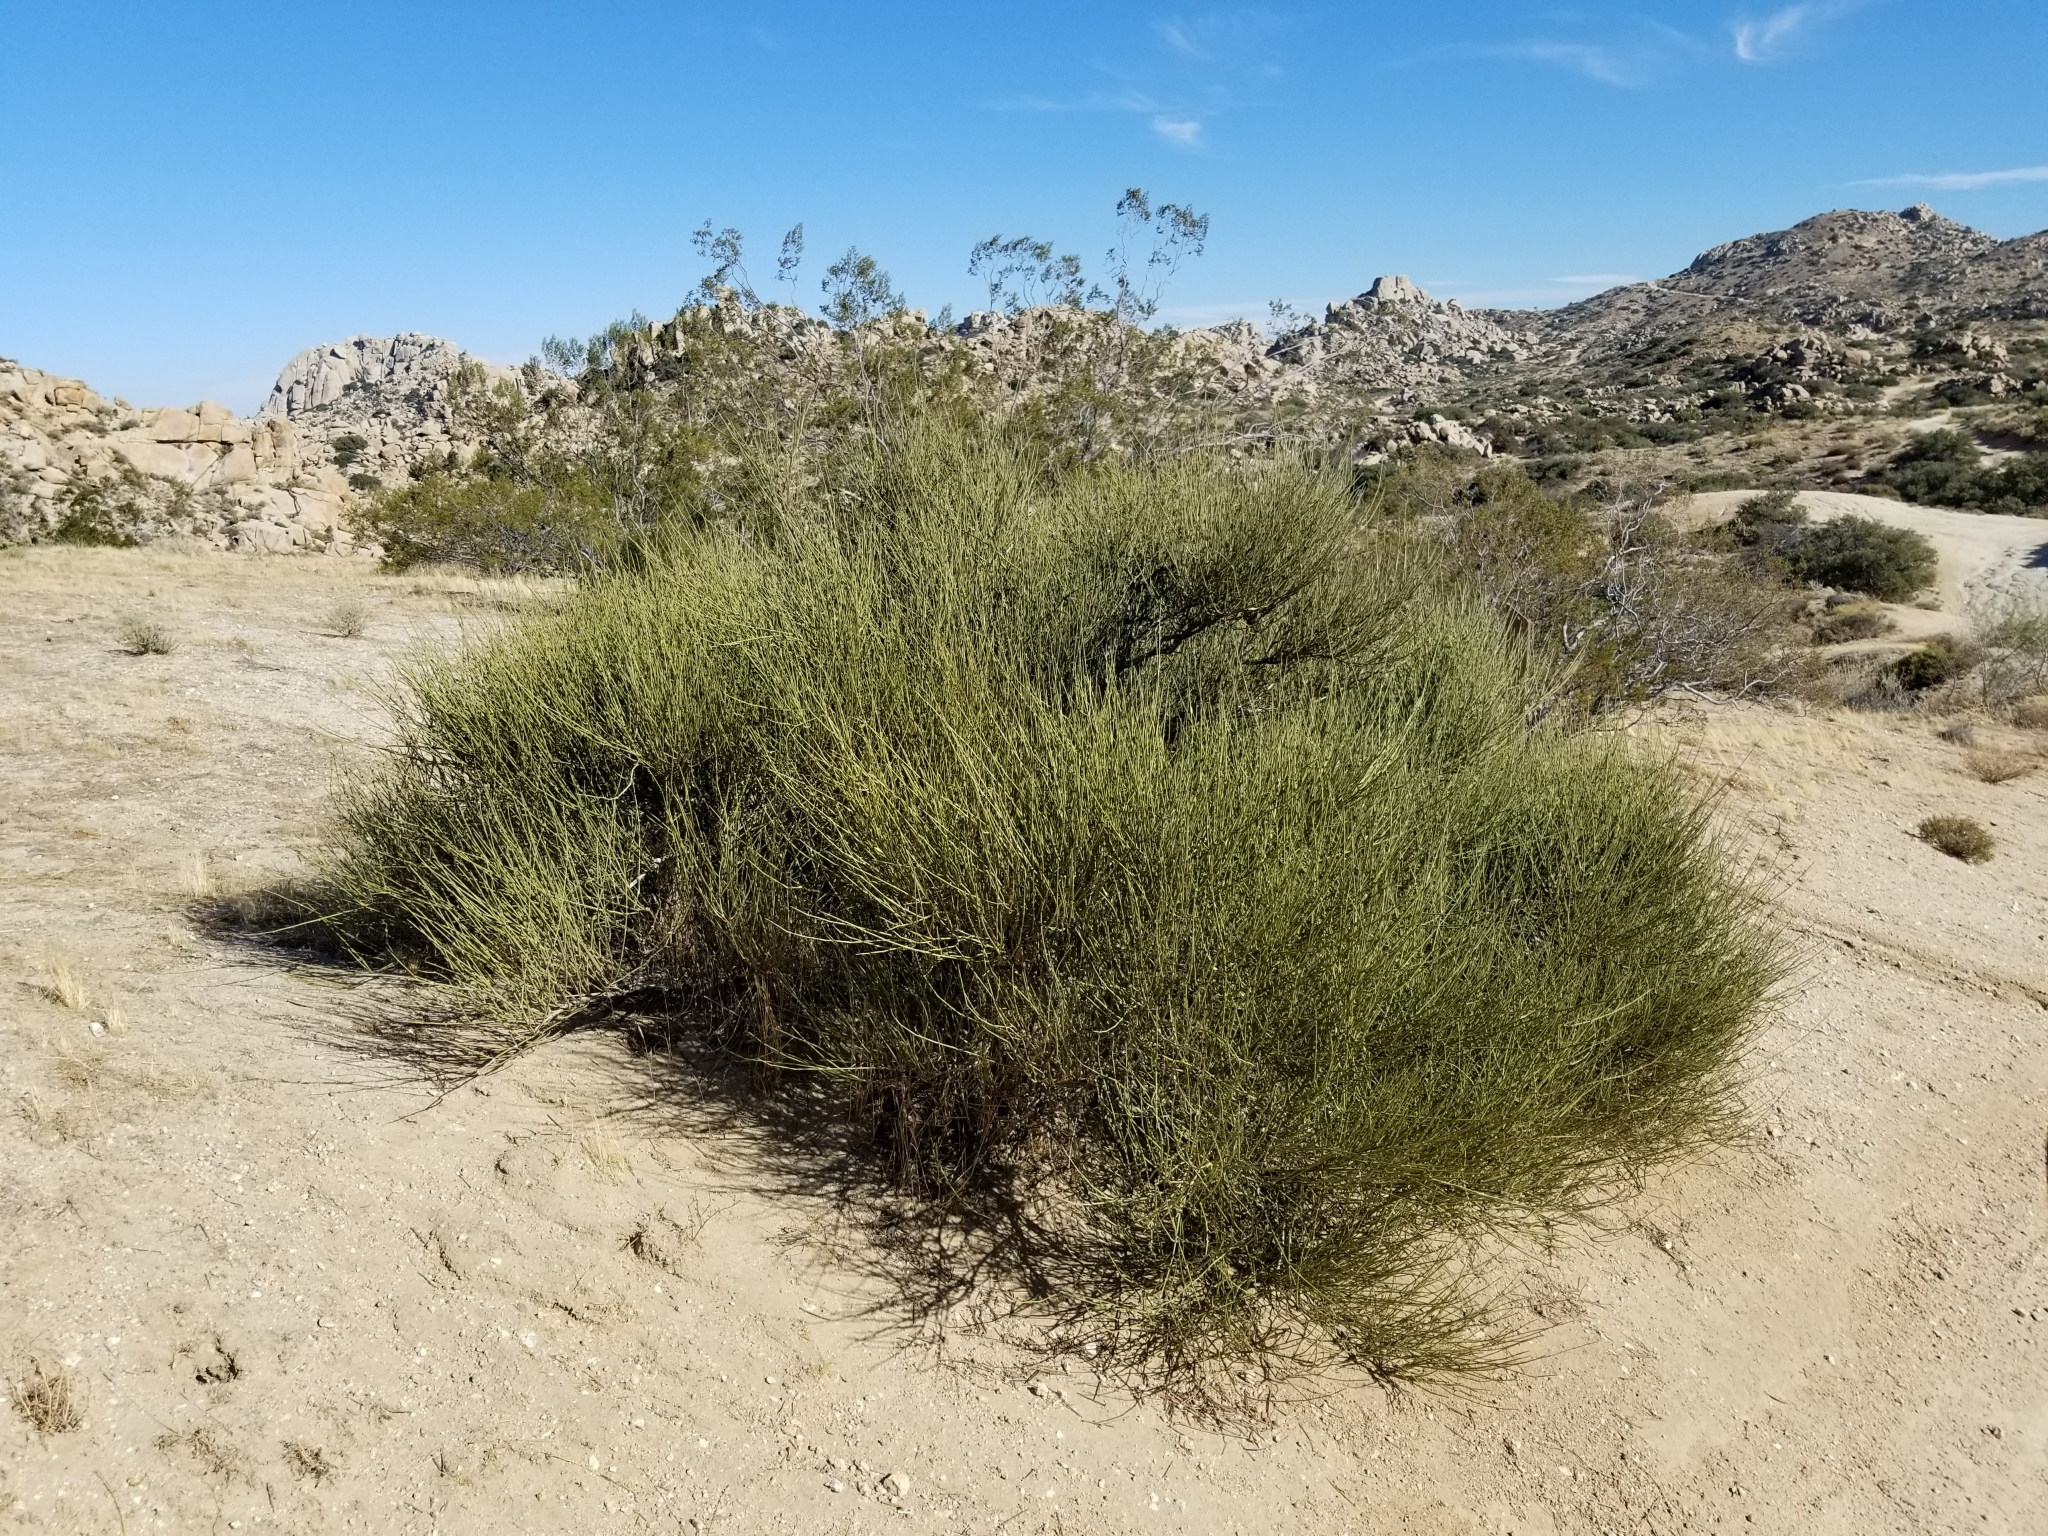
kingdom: Plantae
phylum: Tracheophyta
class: Gnetopsida
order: Ephedrales
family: Ephedraceae
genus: Ephedra
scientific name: Ephedra californica
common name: California ephedra
